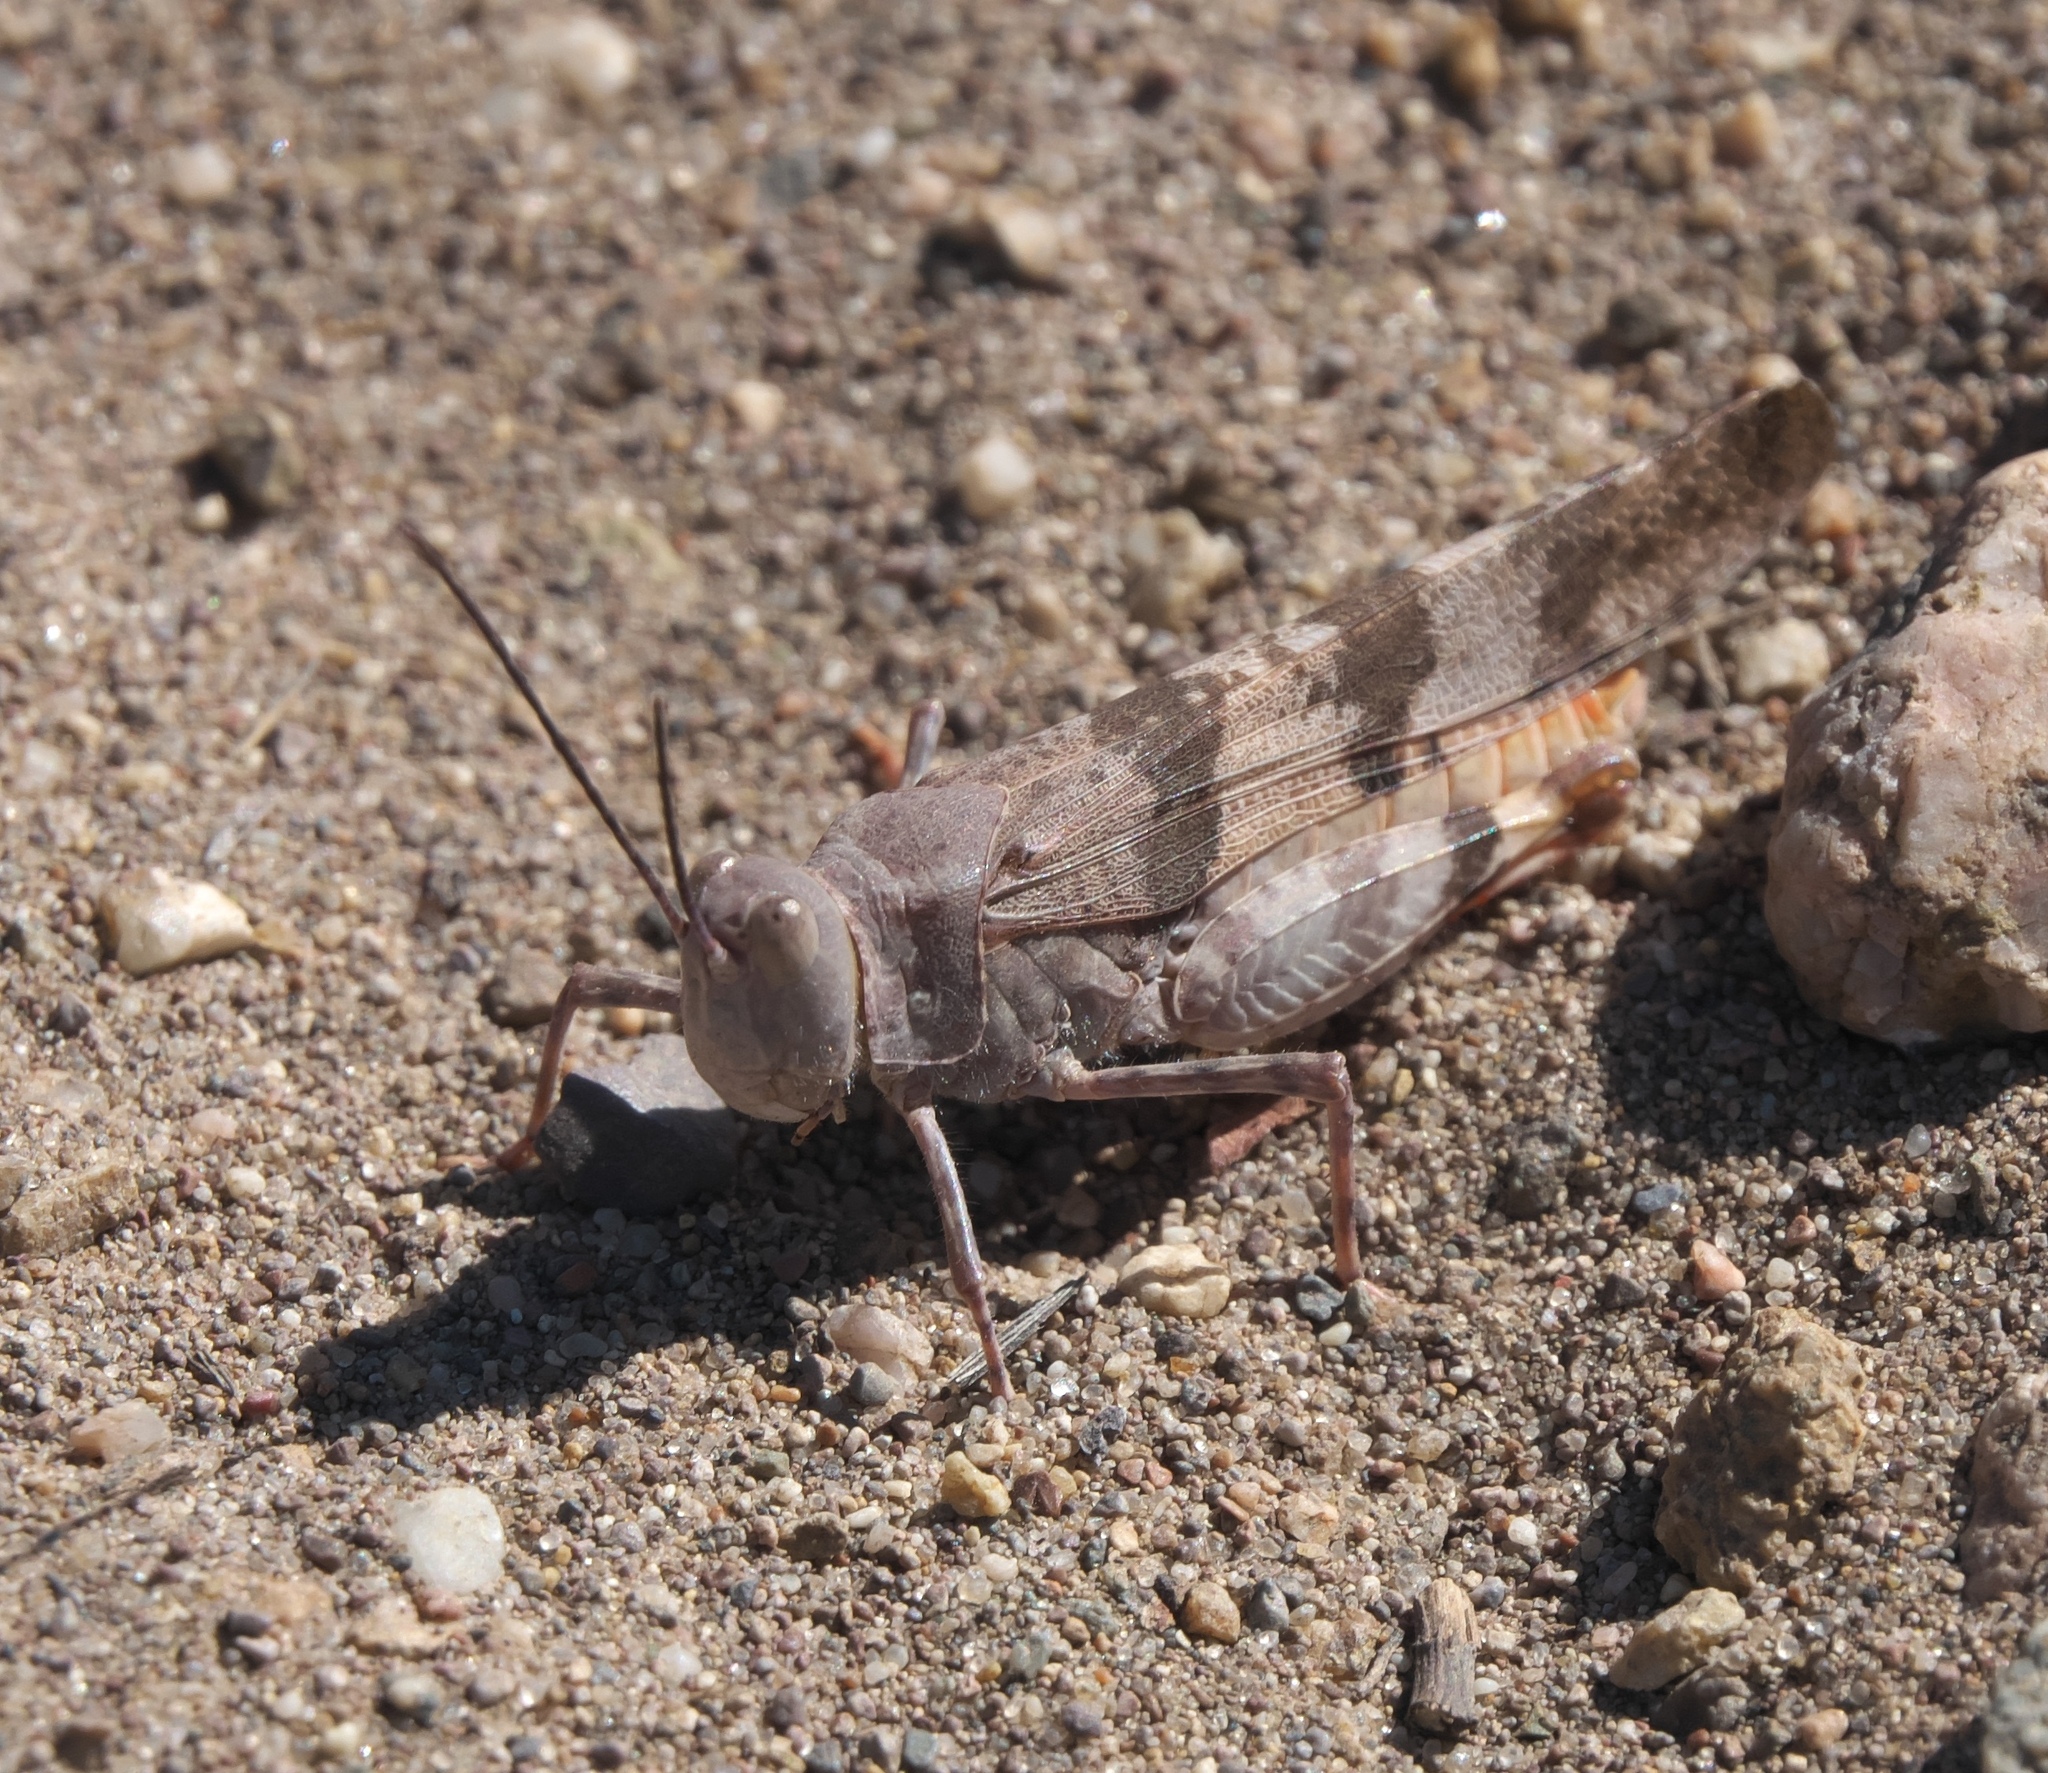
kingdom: Animalia
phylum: Arthropoda
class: Insecta
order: Orthoptera
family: Acrididae
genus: Trimerotropis
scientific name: Trimerotropis latifasciata
